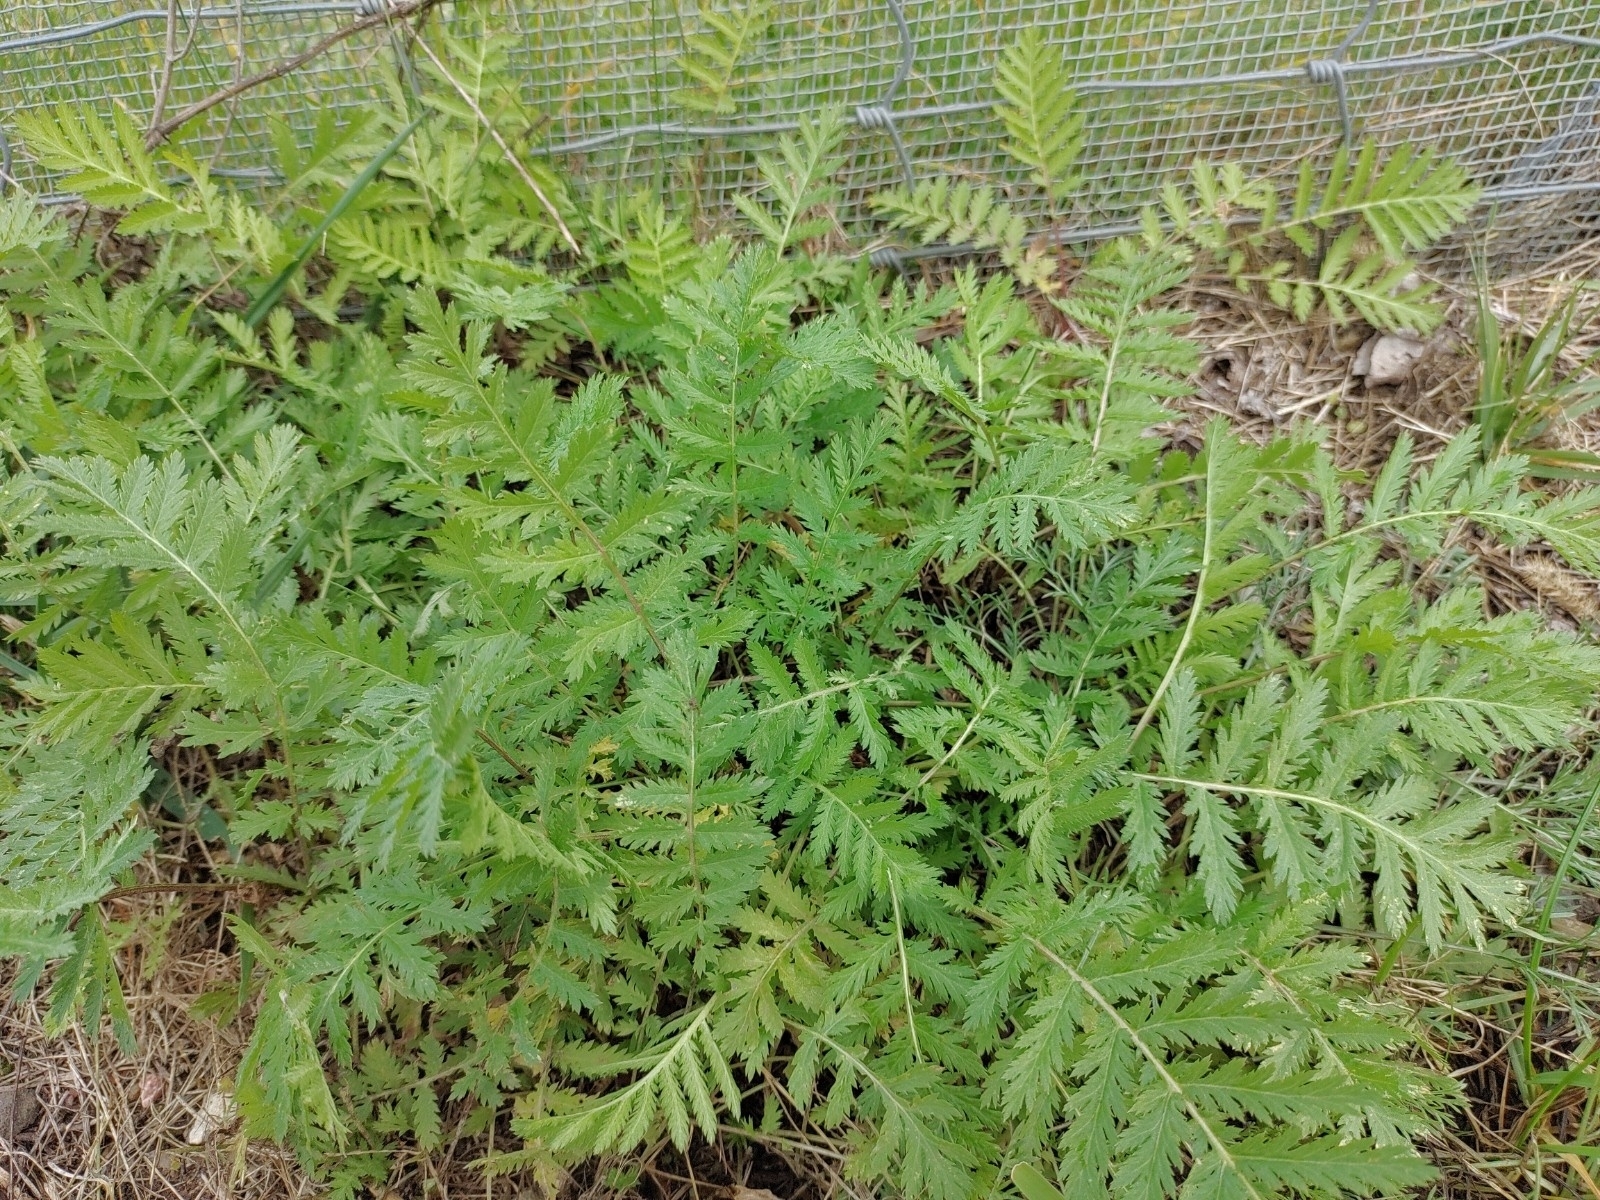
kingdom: Plantae
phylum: Tracheophyta
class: Magnoliopsida
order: Asterales
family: Asteraceae
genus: Tanacetum
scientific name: Tanacetum vulgare
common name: Common tansy
